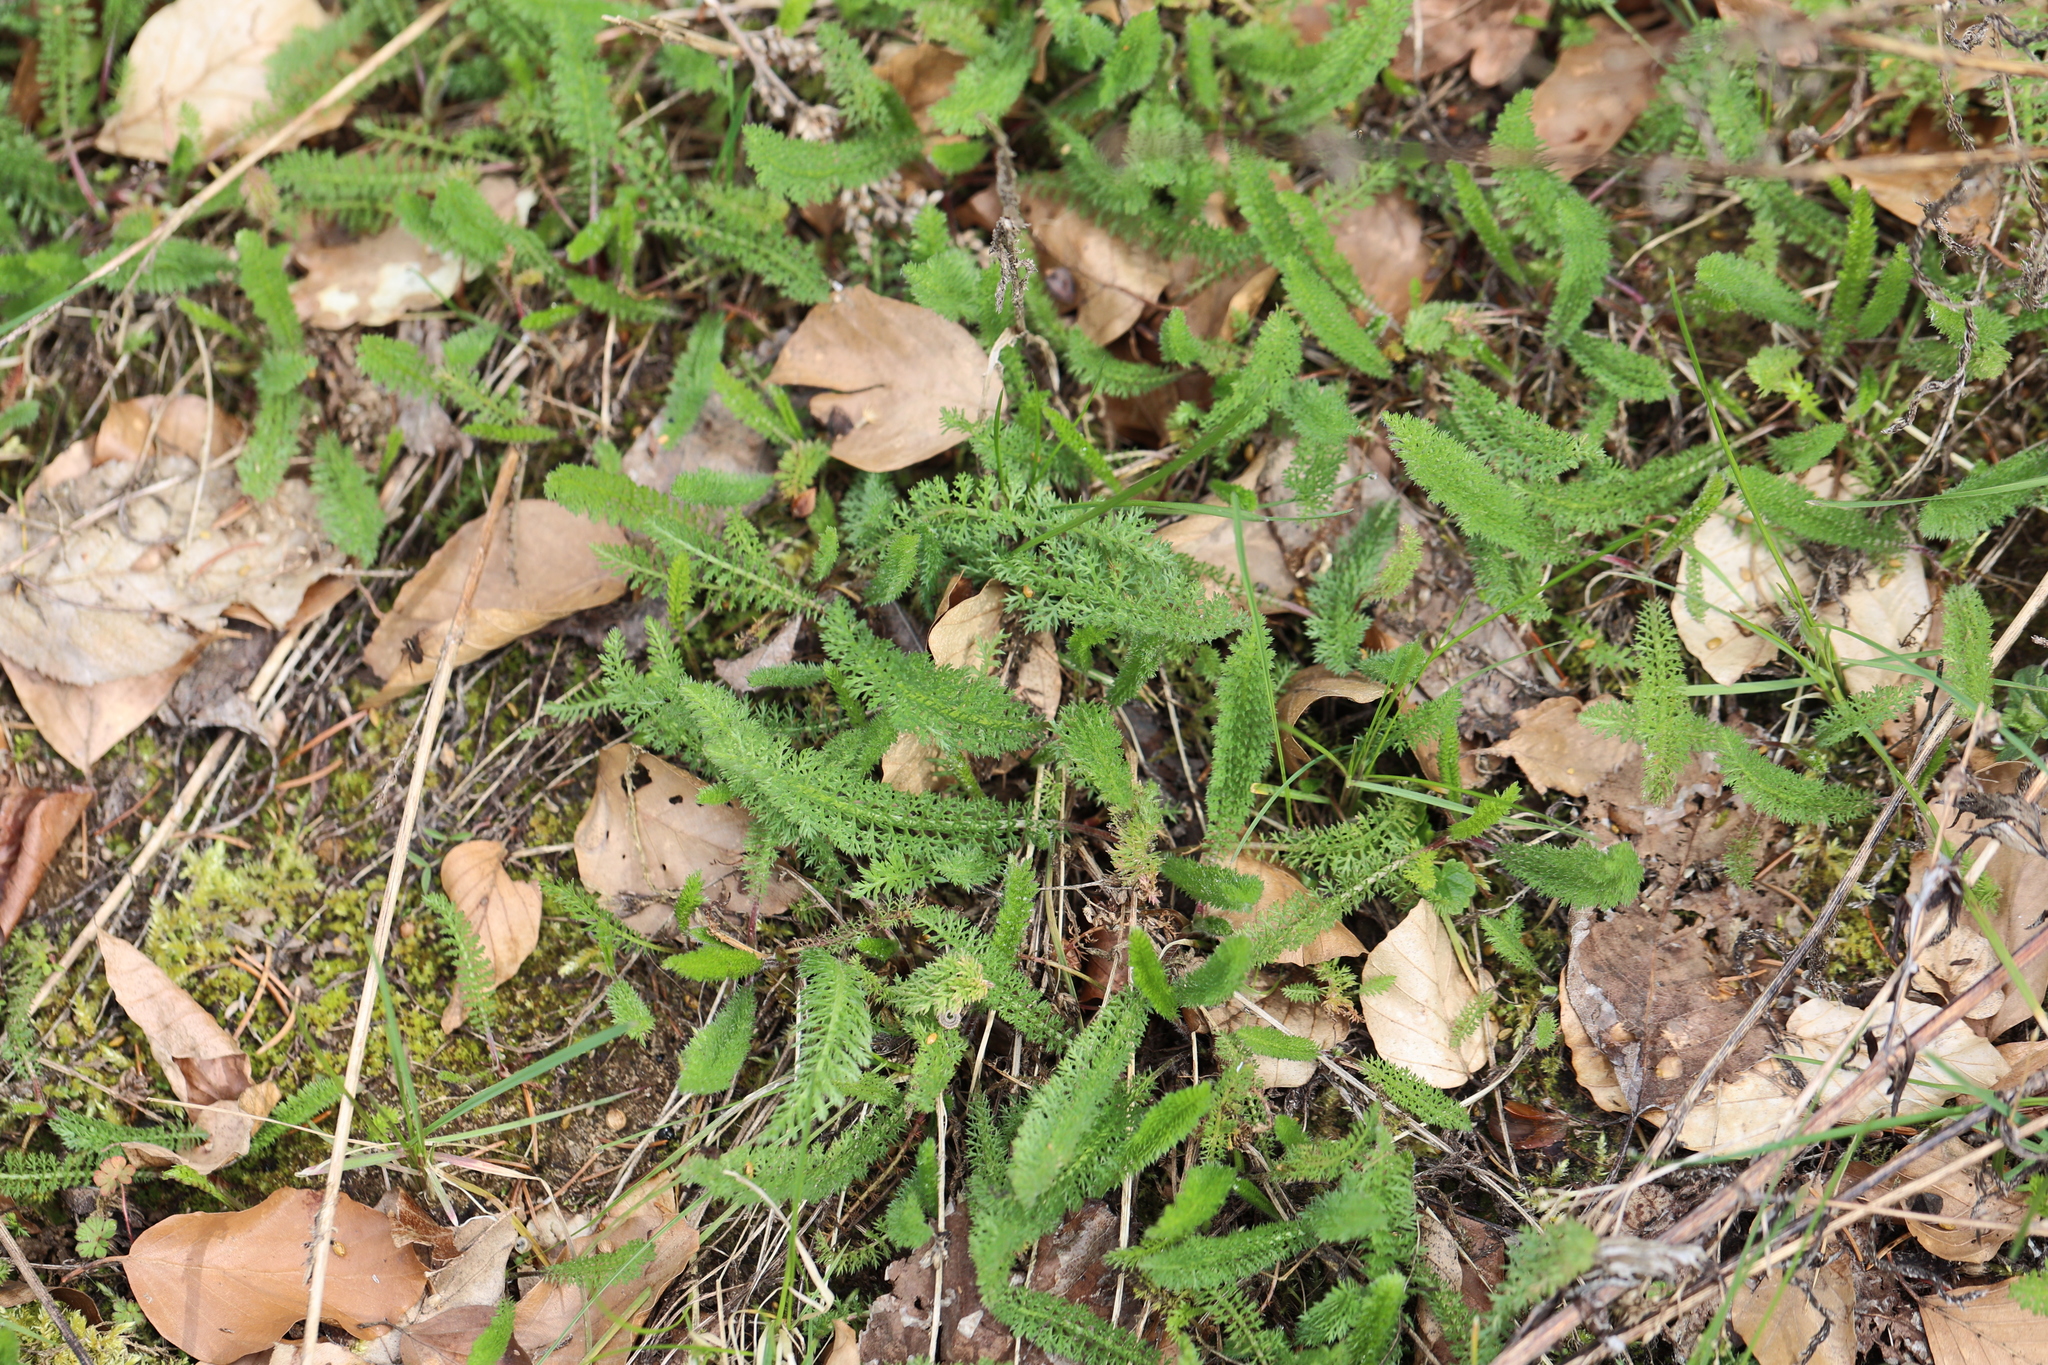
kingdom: Plantae
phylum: Tracheophyta
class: Magnoliopsida
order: Asterales
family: Asteraceae
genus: Achillea
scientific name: Achillea millefolium
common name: Yarrow
